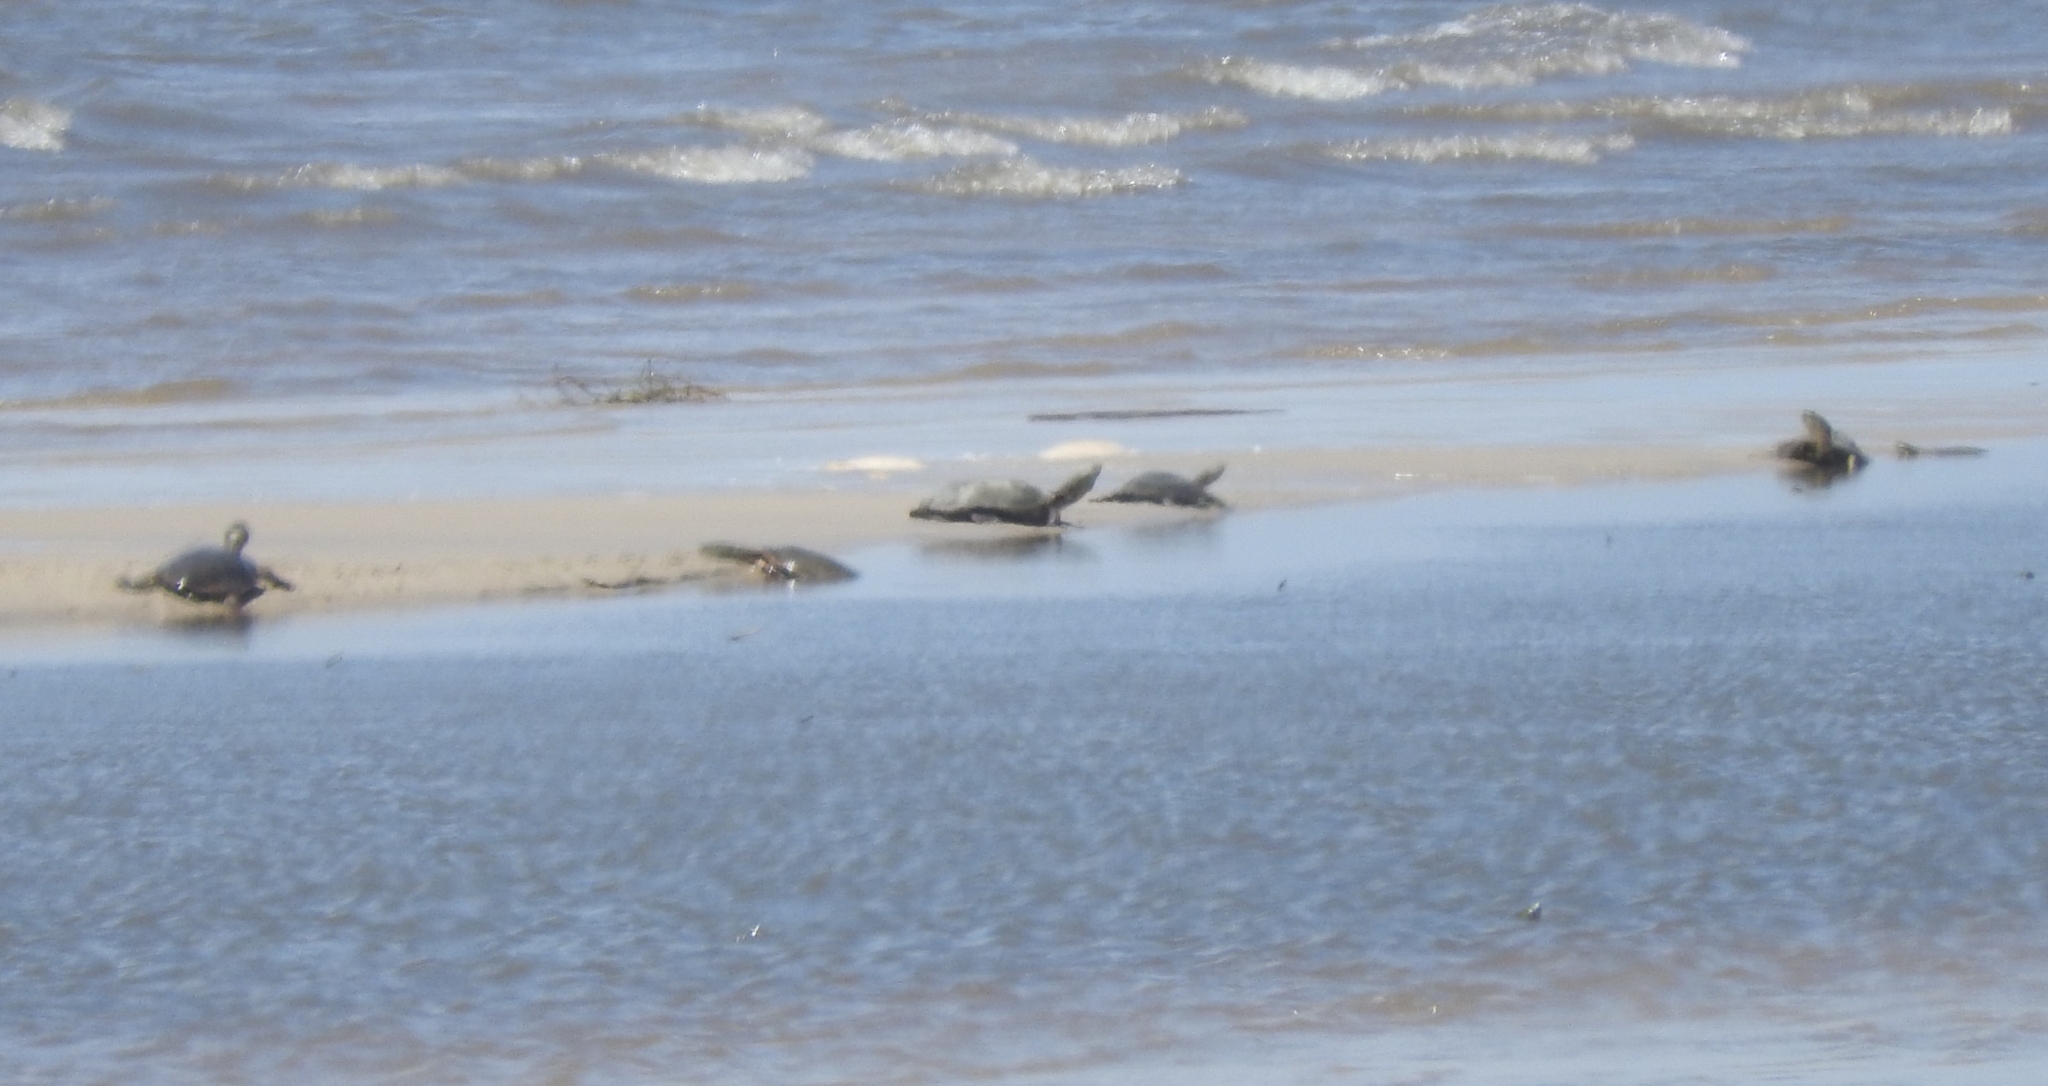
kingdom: Animalia
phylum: Chordata
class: Testudines
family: Chelidae
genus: Phrynops
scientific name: Phrynops hilarii
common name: Side-necked turtle of saint hillaire
